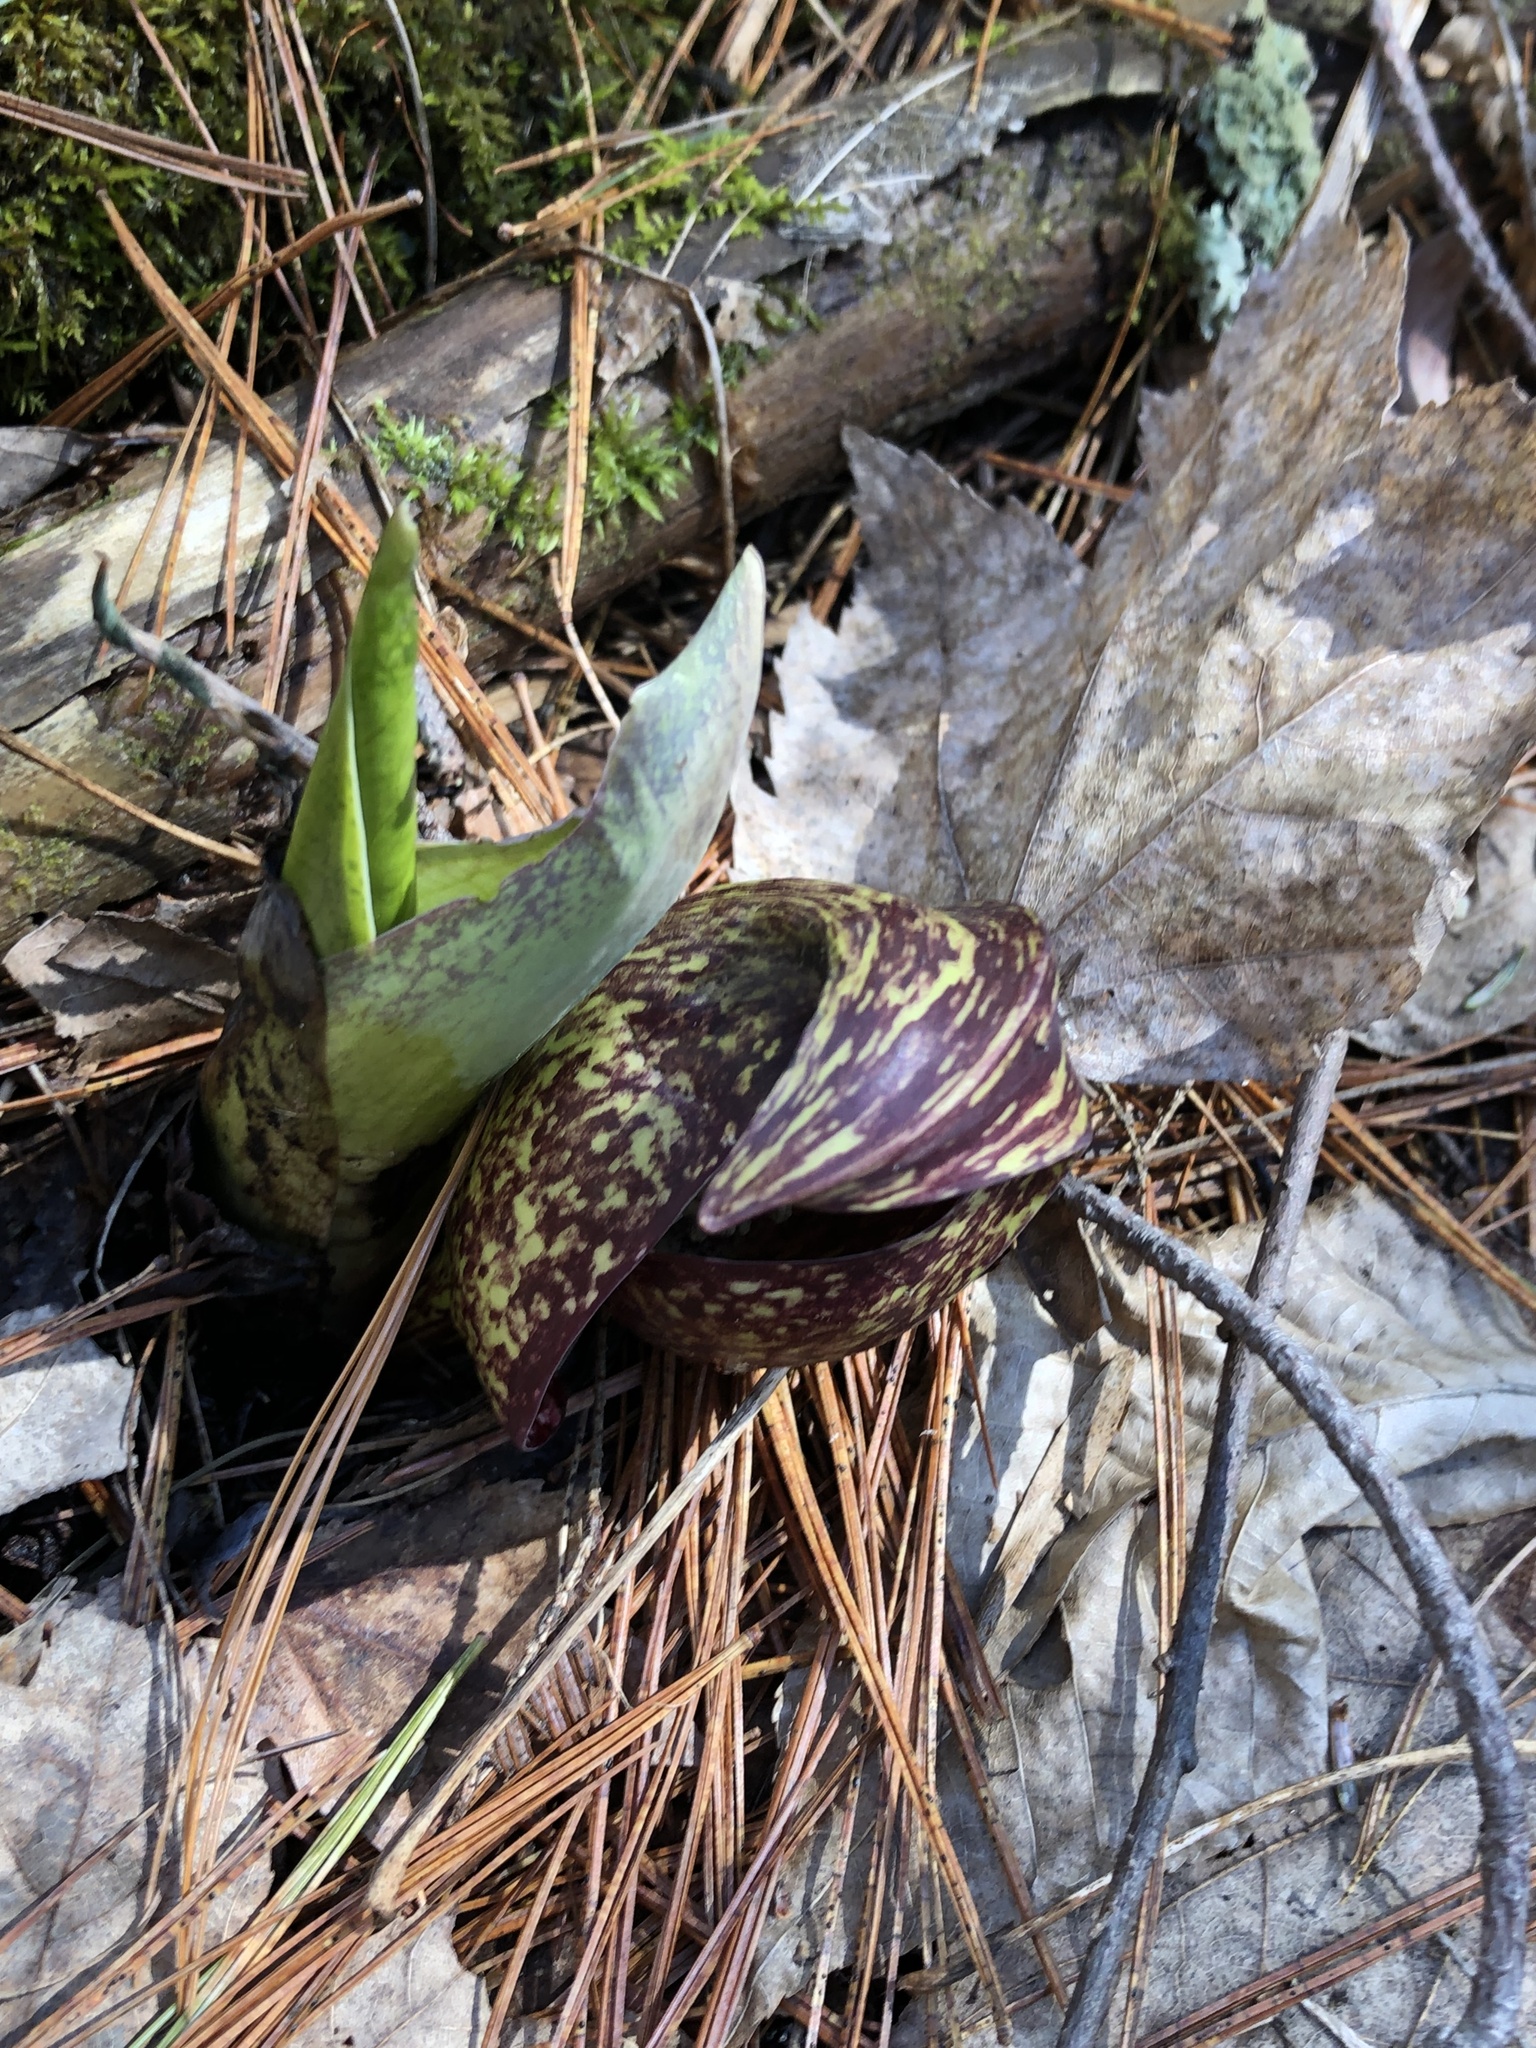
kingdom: Plantae
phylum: Tracheophyta
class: Liliopsida
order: Alismatales
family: Araceae
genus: Symplocarpus
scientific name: Symplocarpus foetidus
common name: Eastern skunk cabbage
